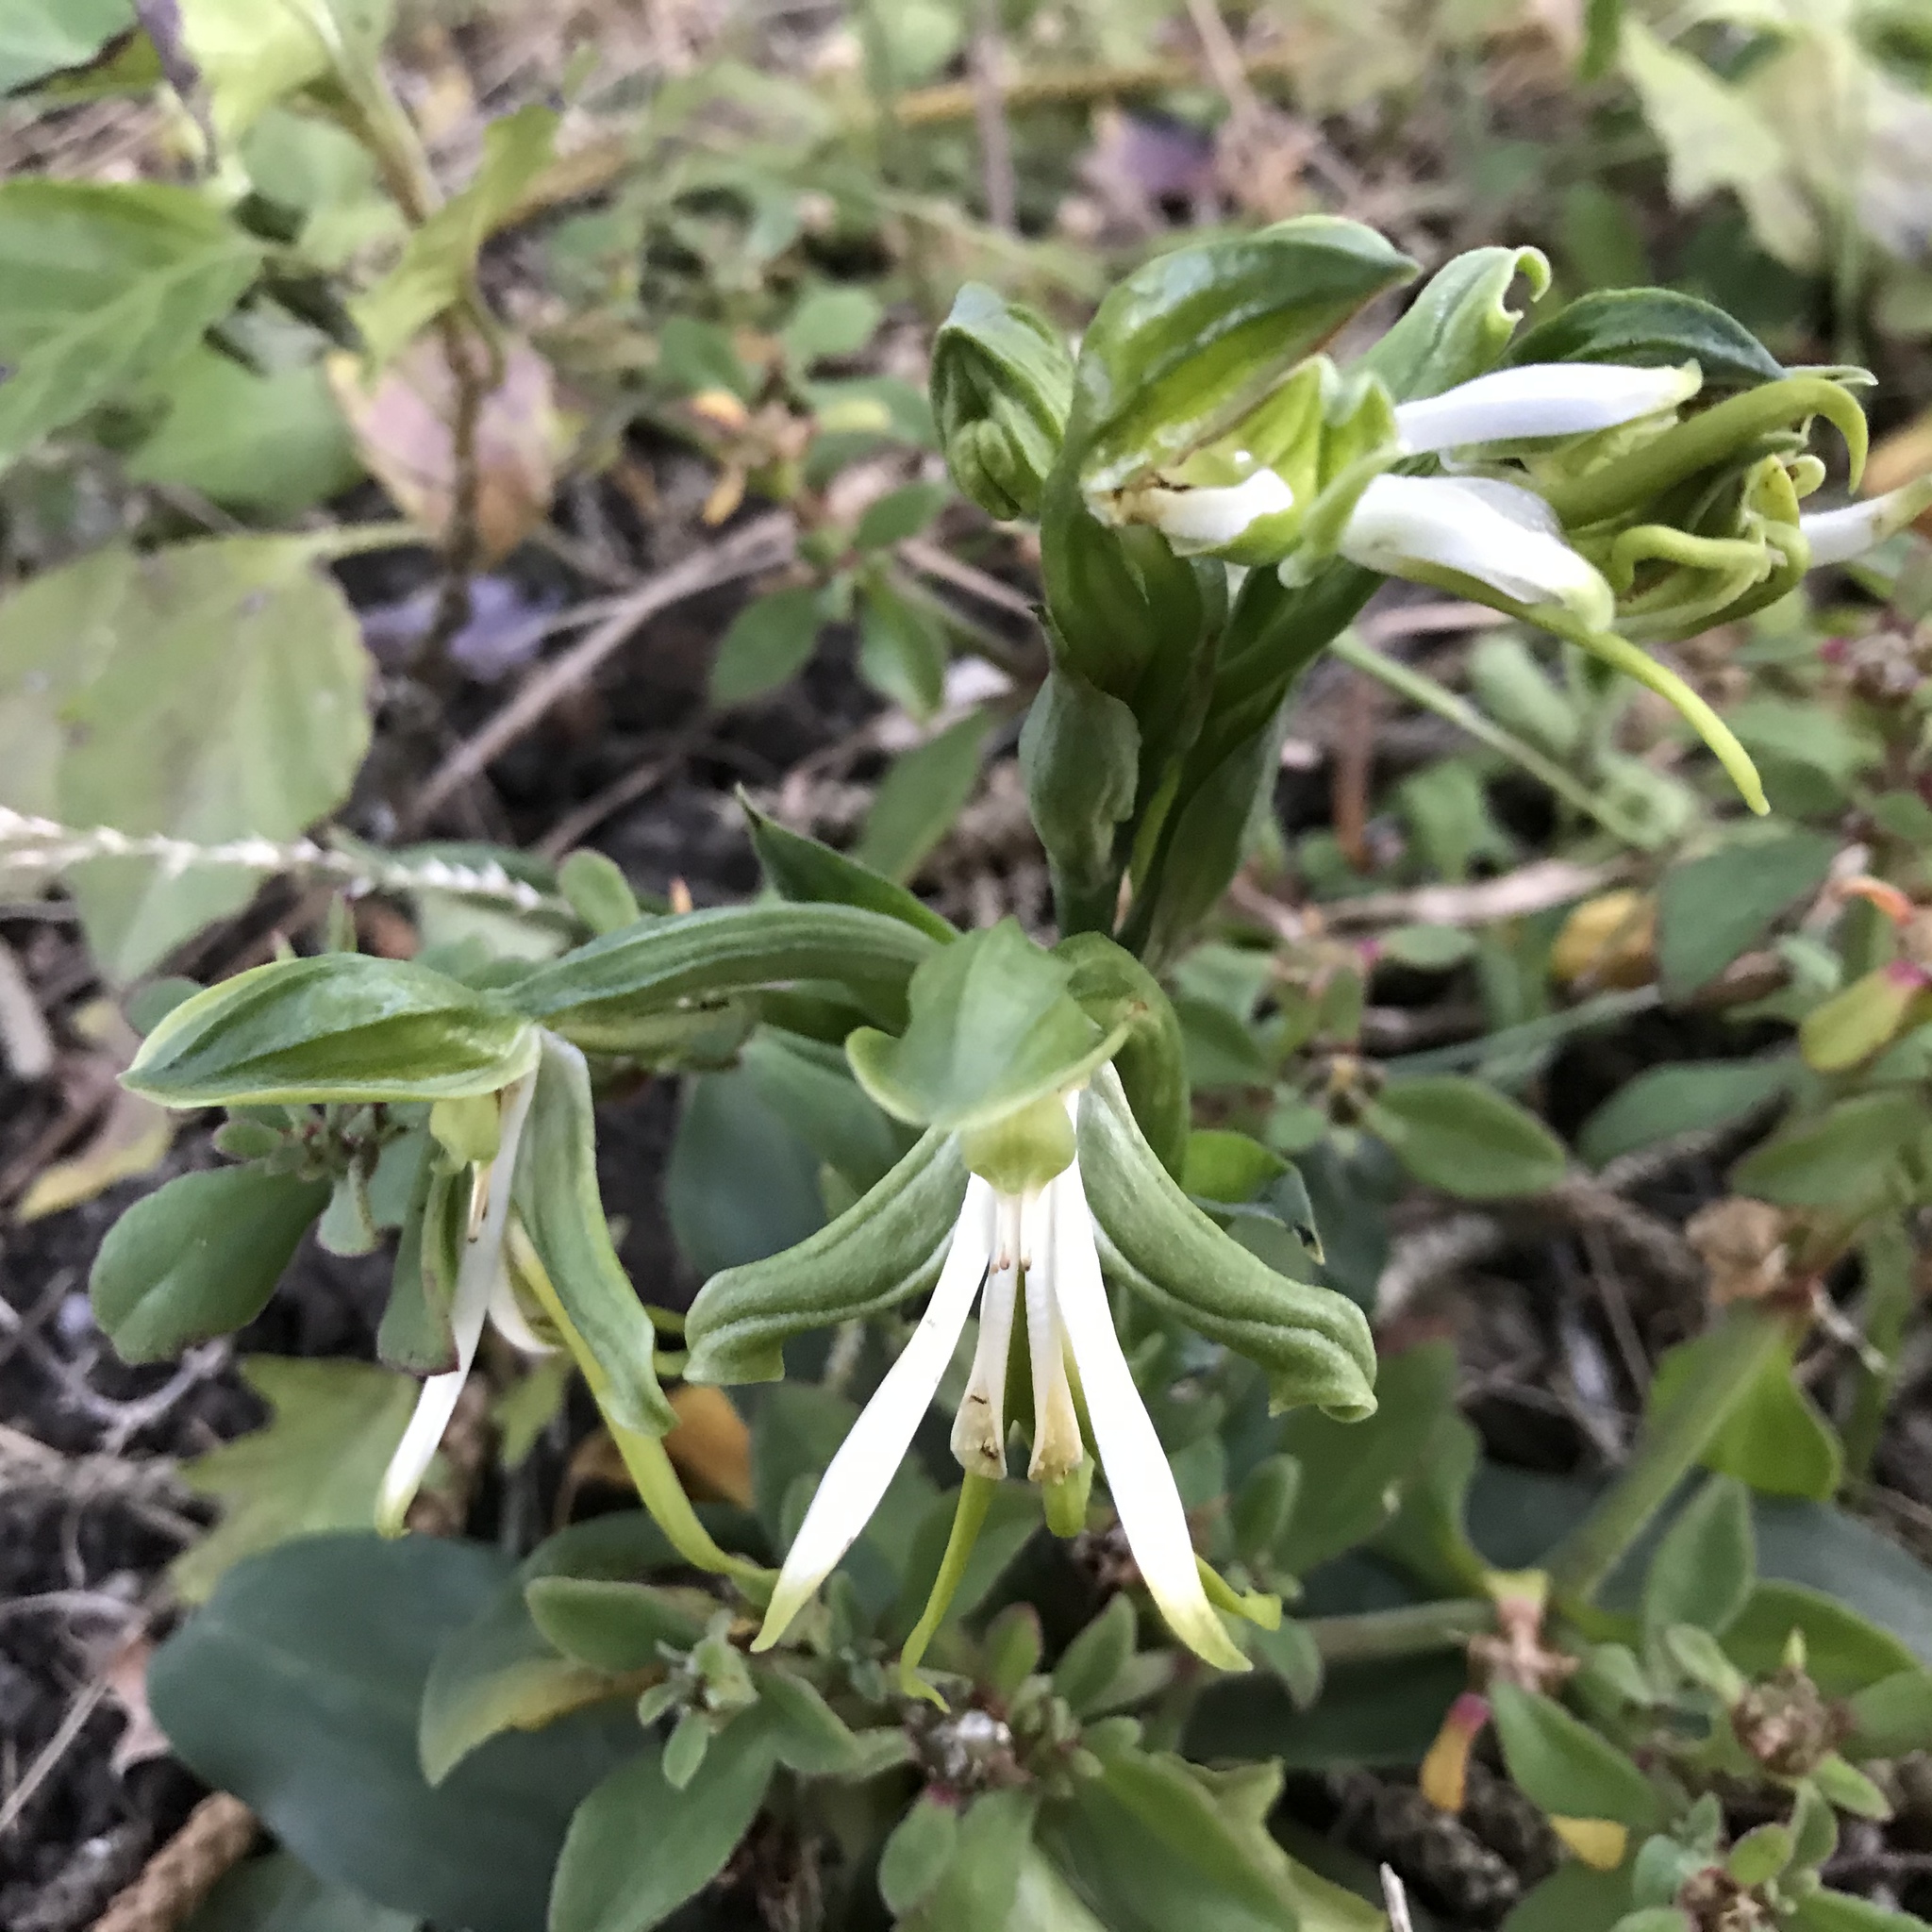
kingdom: Plantae
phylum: Tracheophyta
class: Liliopsida
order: Asparagales
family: Orchidaceae
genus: Bonatea
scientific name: Bonatea speciosa
